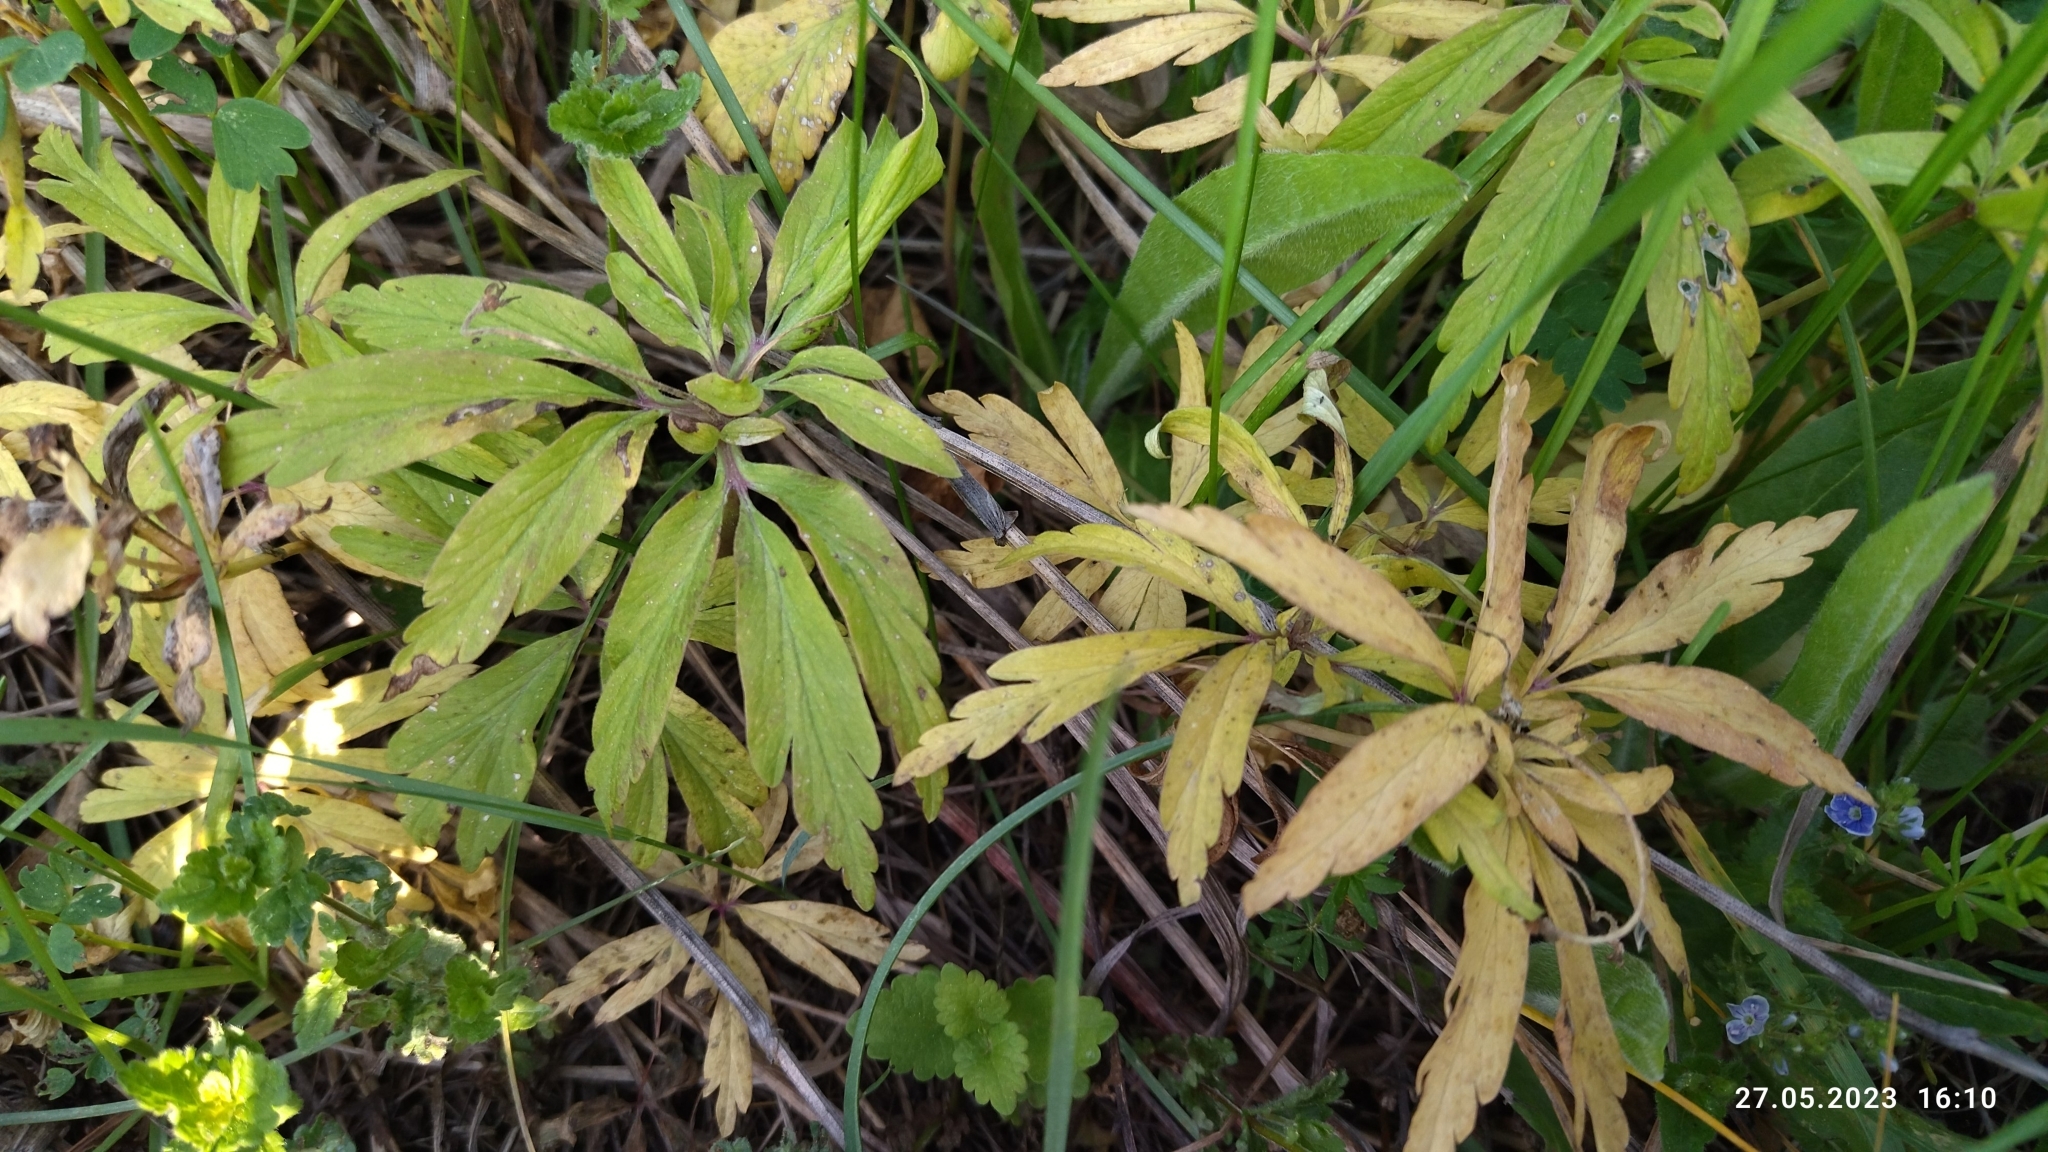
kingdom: Plantae
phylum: Tracheophyta
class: Magnoliopsida
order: Ranunculales
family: Ranunculaceae
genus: Anemone
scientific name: Anemone ranunculoides
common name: Yellow anemone
